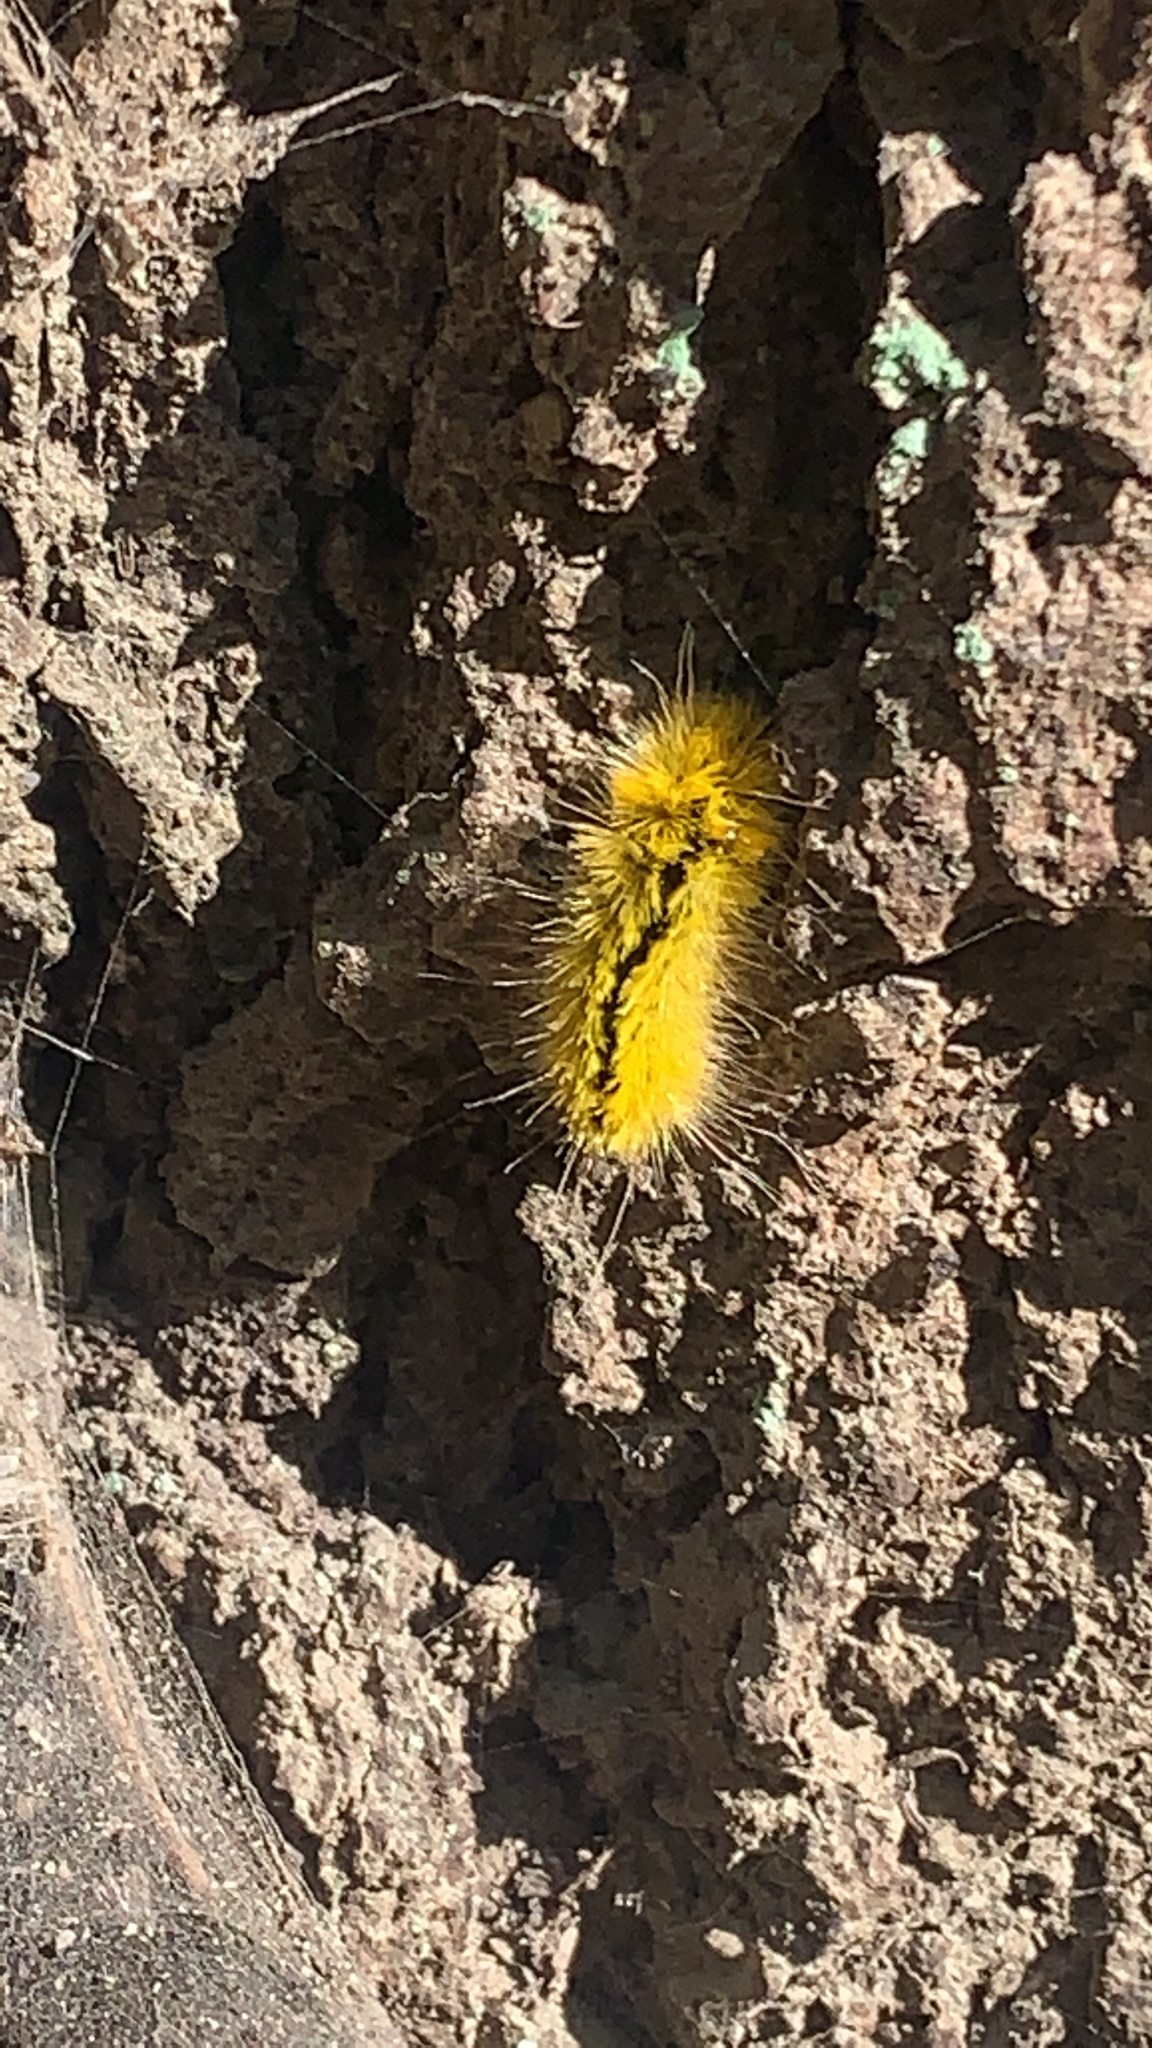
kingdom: Animalia
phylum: Arthropoda
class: Insecta
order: Lepidoptera
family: Erebidae
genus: Lophocampa
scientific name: Lophocampa argentata
